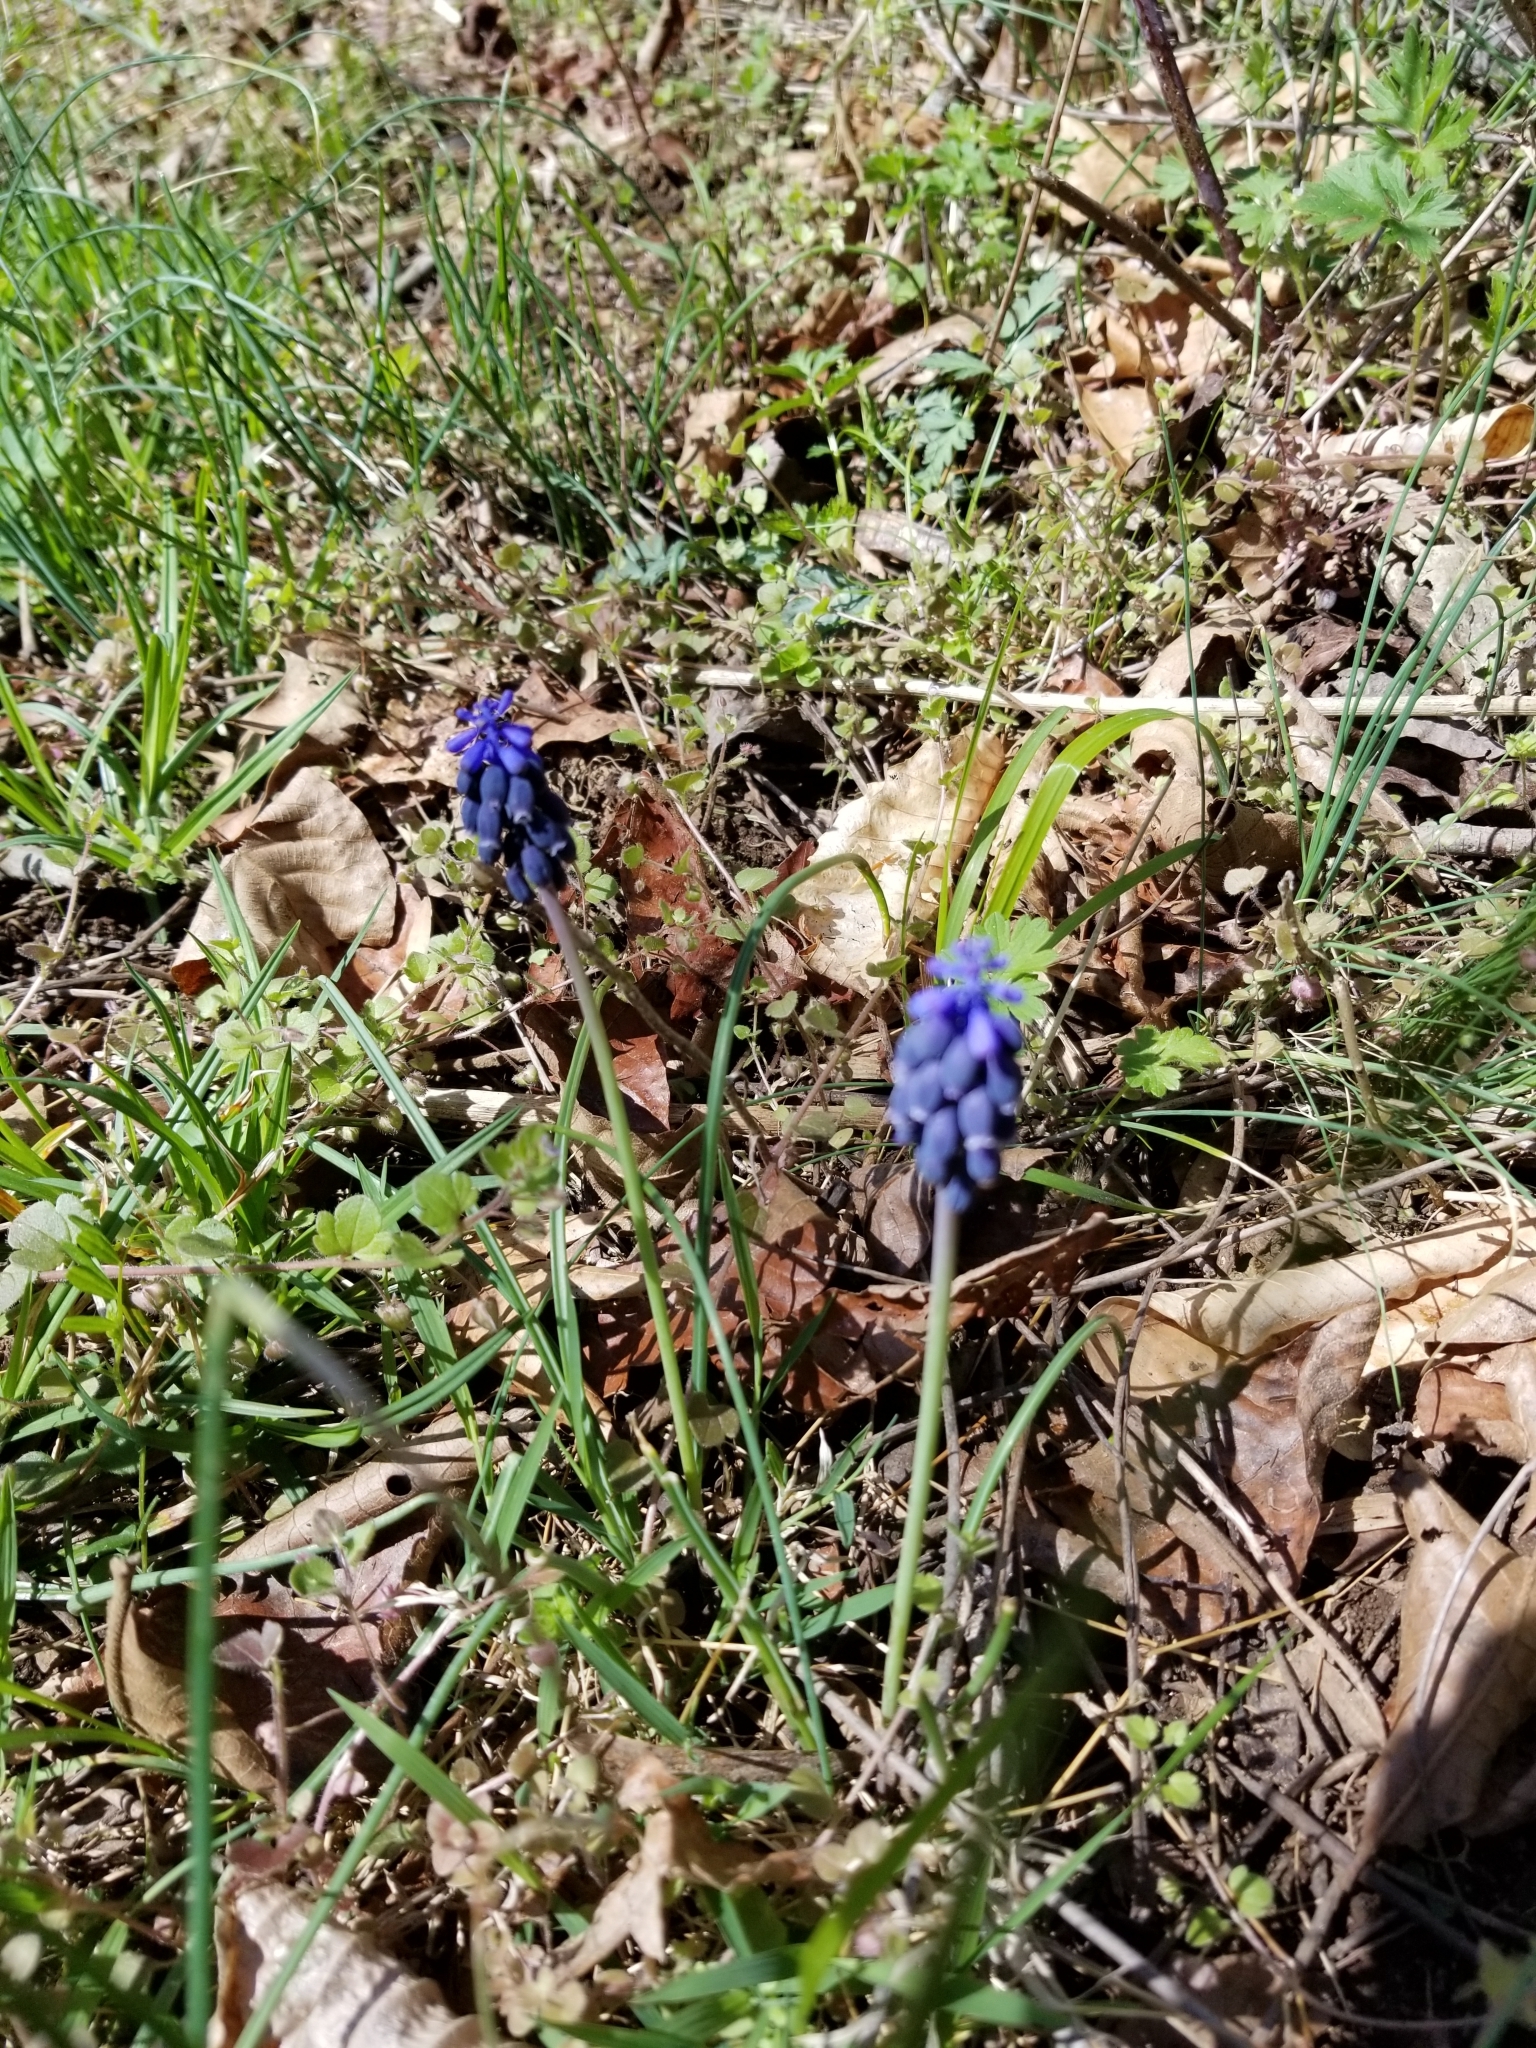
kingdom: Plantae
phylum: Tracheophyta
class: Liliopsida
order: Asparagales
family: Asparagaceae
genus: Muscari
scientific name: Muscari neglectum
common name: Grape-hyacinth
